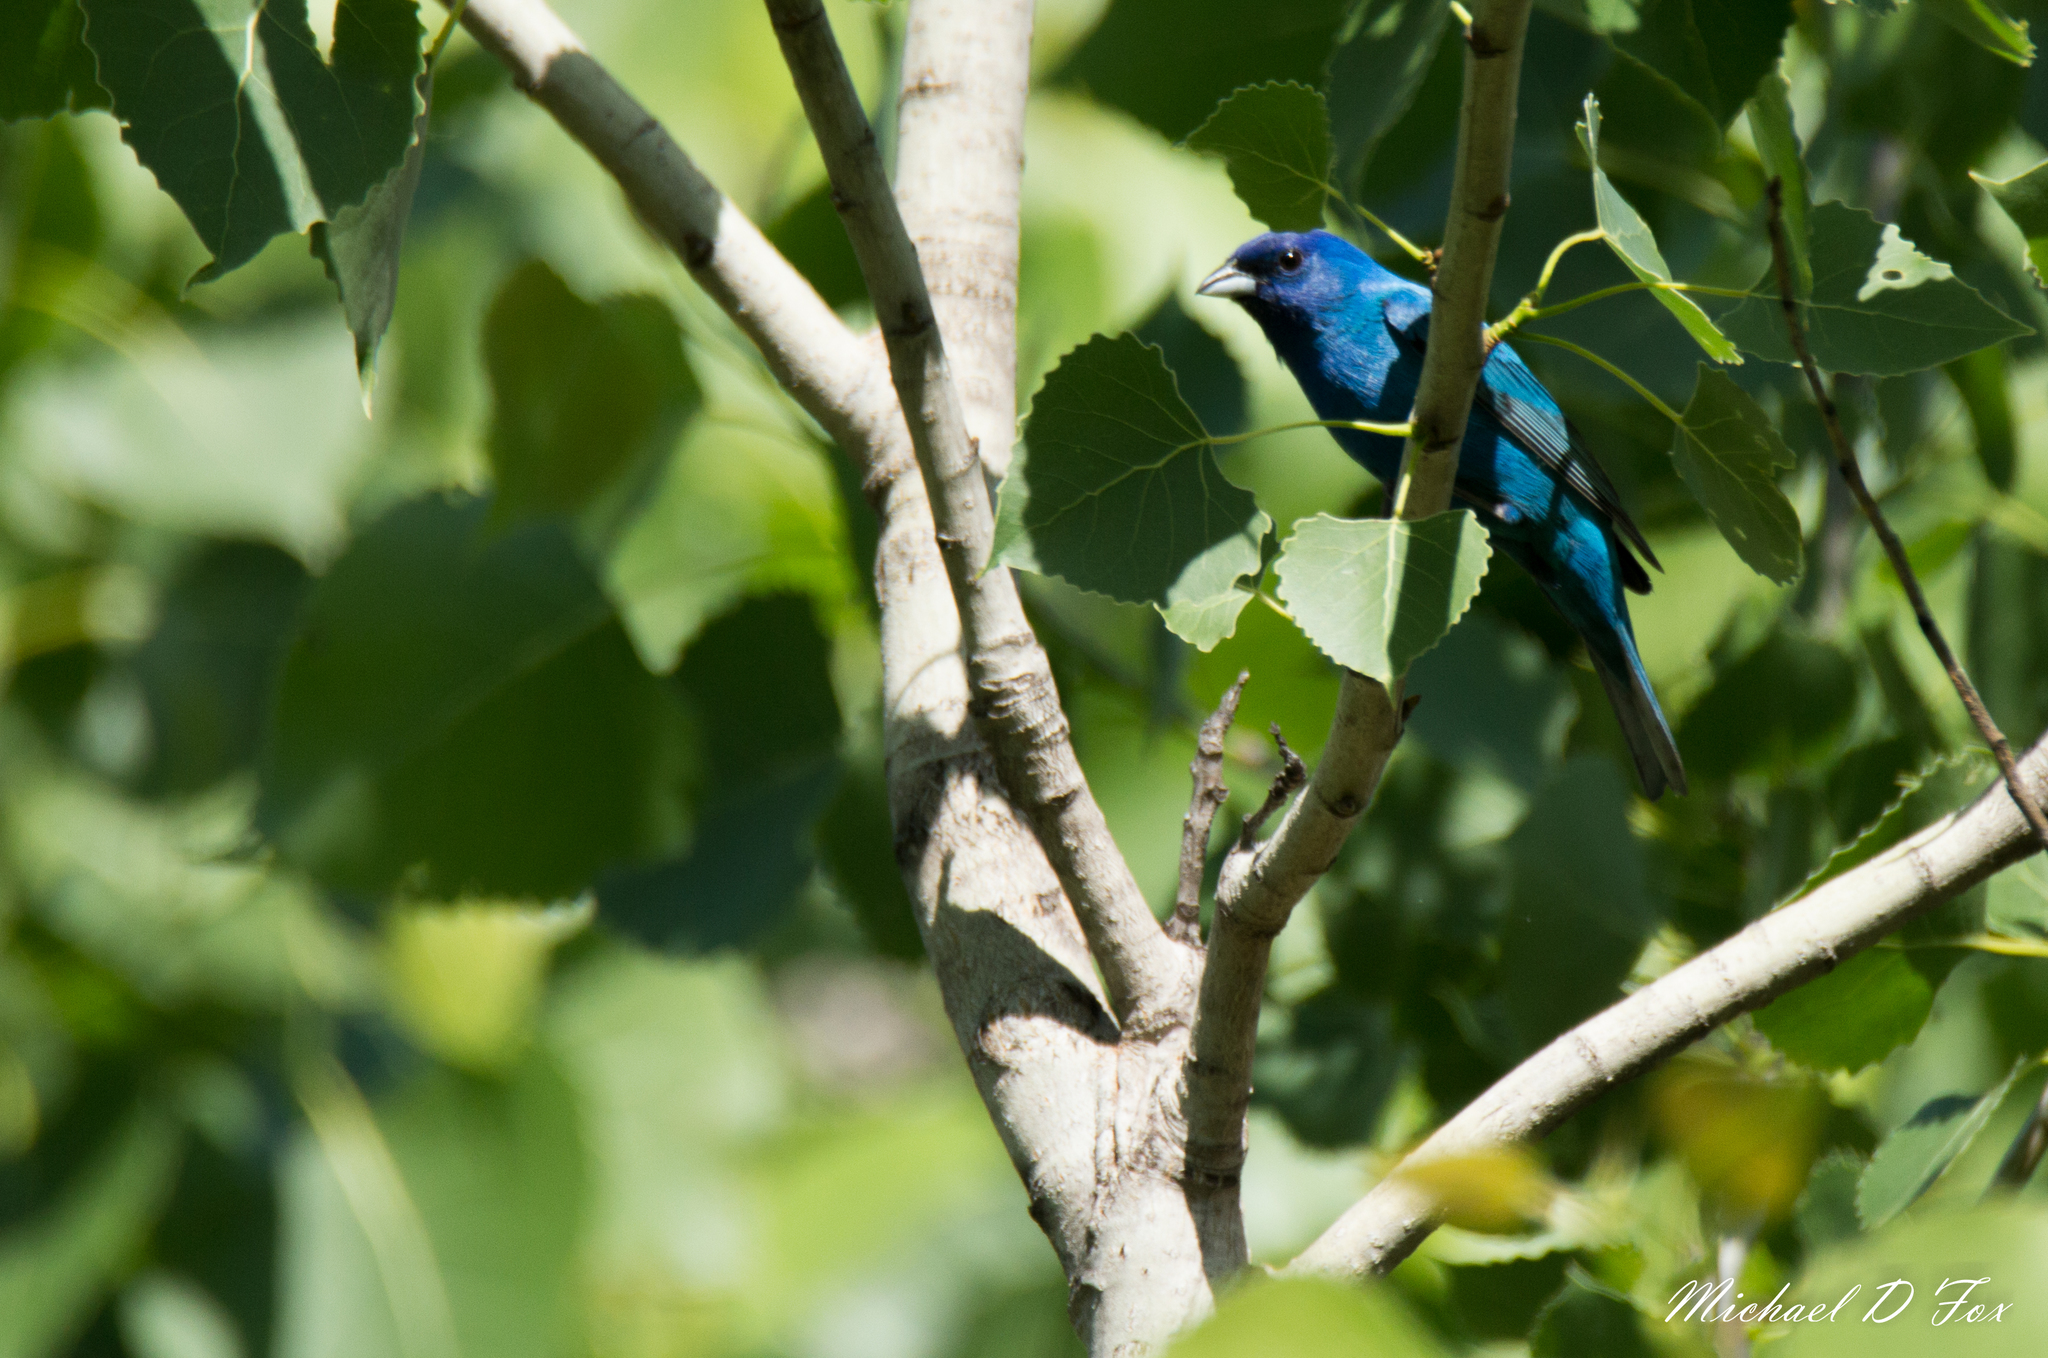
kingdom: Animalia
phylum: Chordata
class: Aves
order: Passeriformes
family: Cardinalidae
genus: Passerina
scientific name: Passerina cyanea
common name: Indigo bunting
